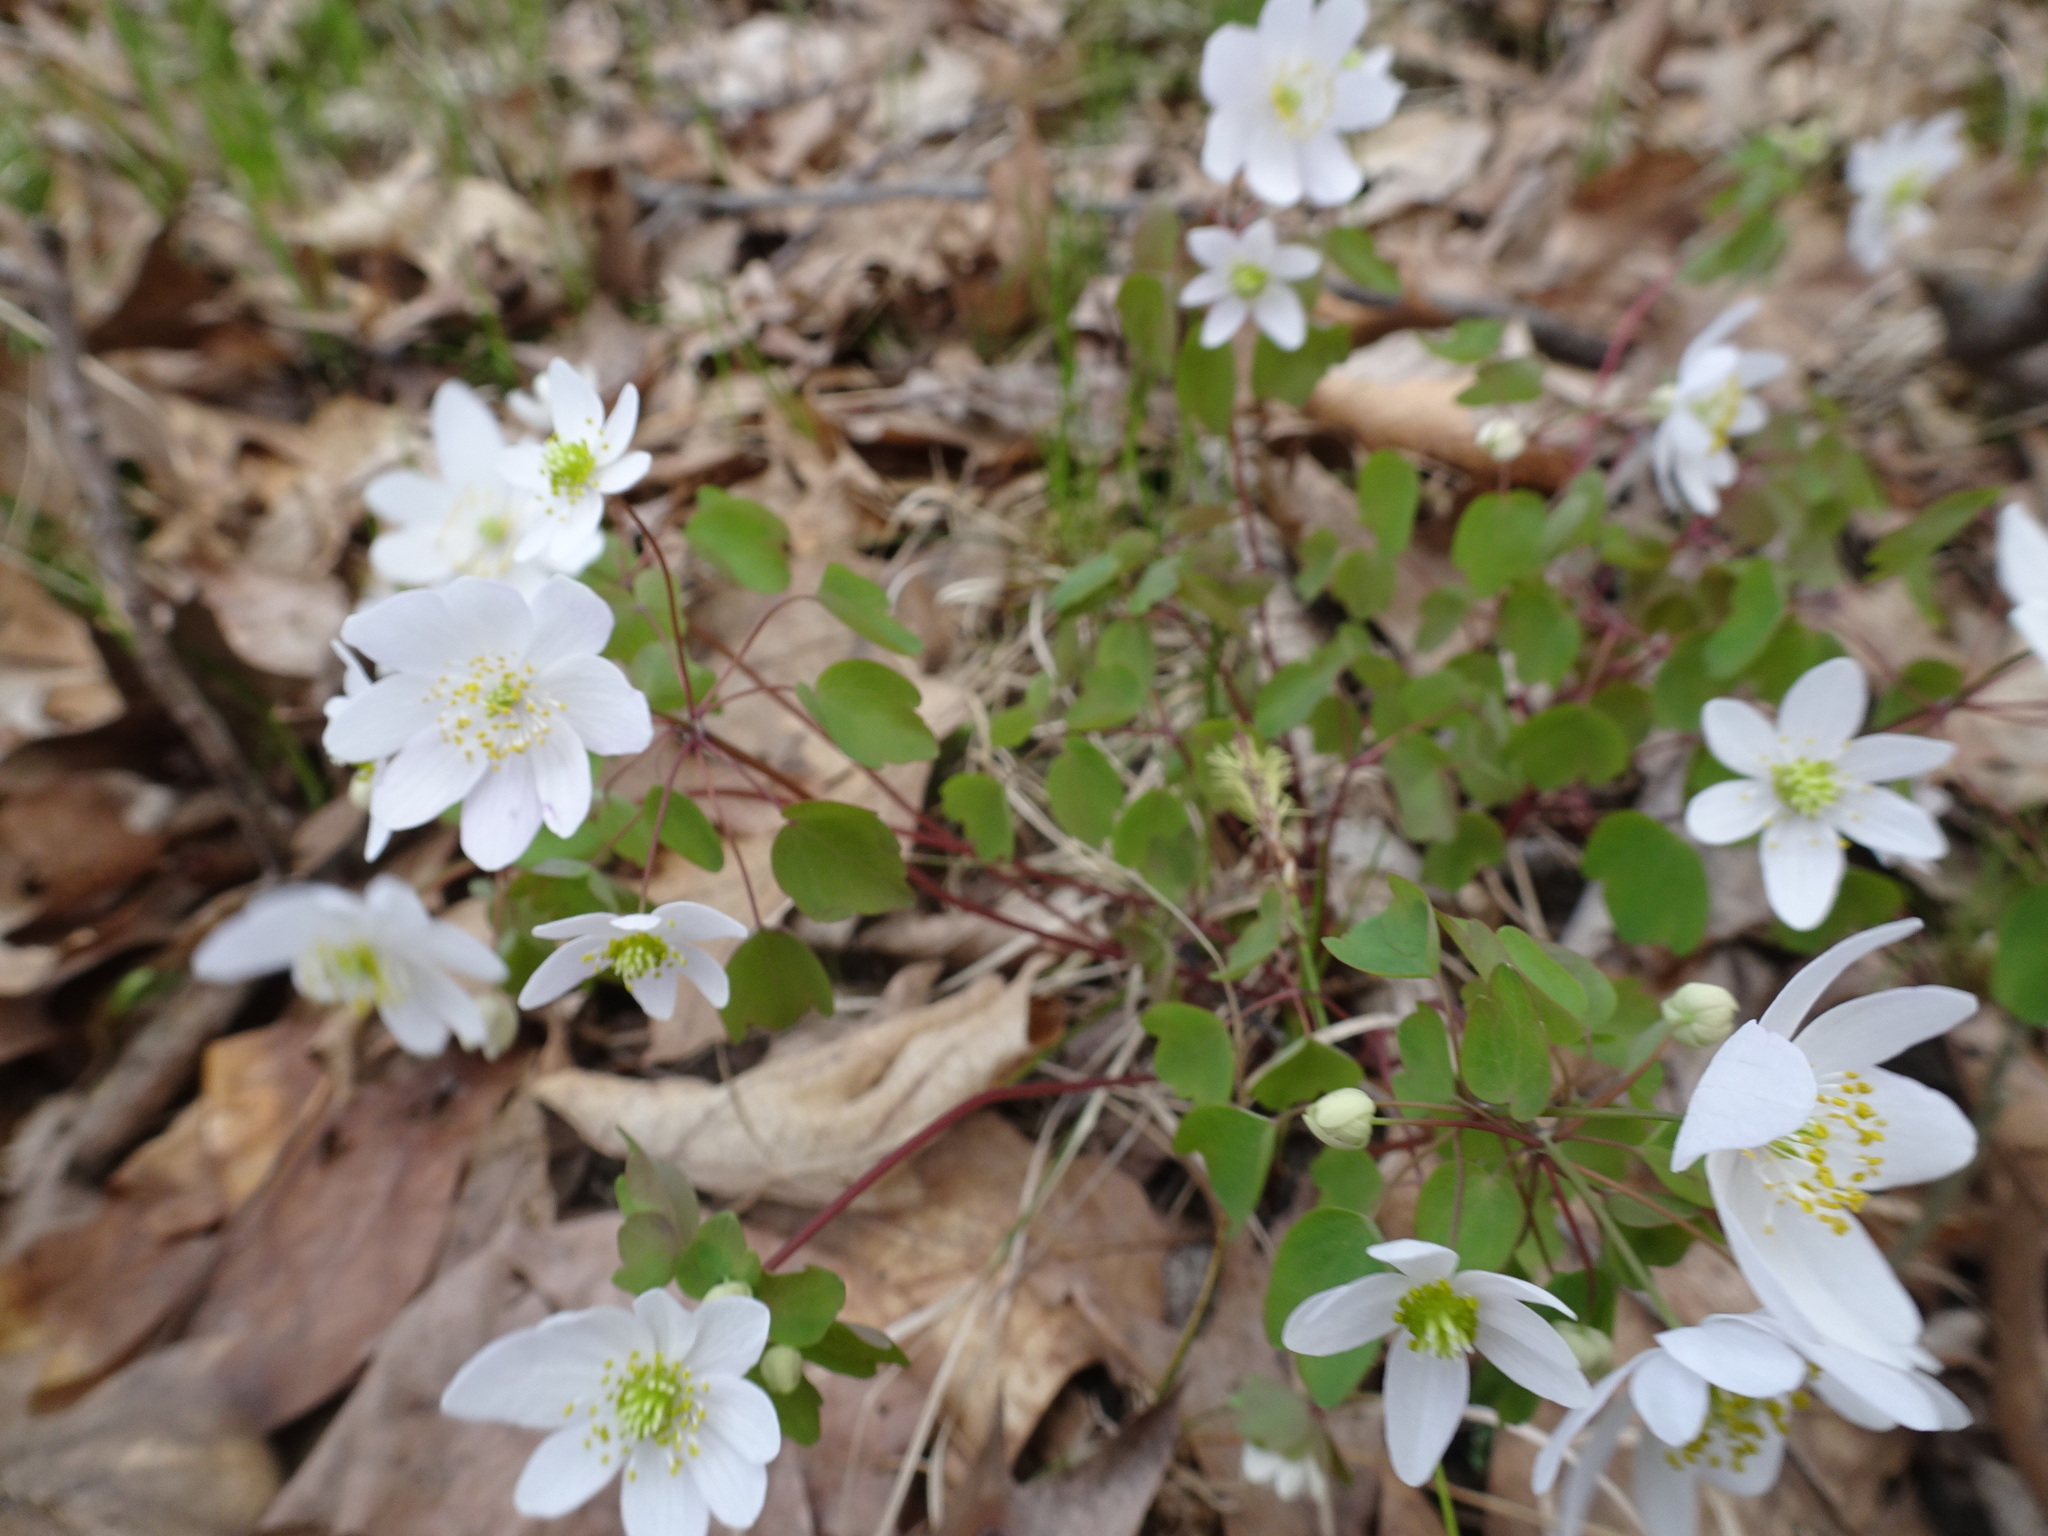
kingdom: Plantae
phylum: Tracheophyta
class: Magnoliopsida
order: Ranunculales
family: Ranunculaceae
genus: Thalictrum
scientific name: Thalictrum thalictroides
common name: Rue-anemone
